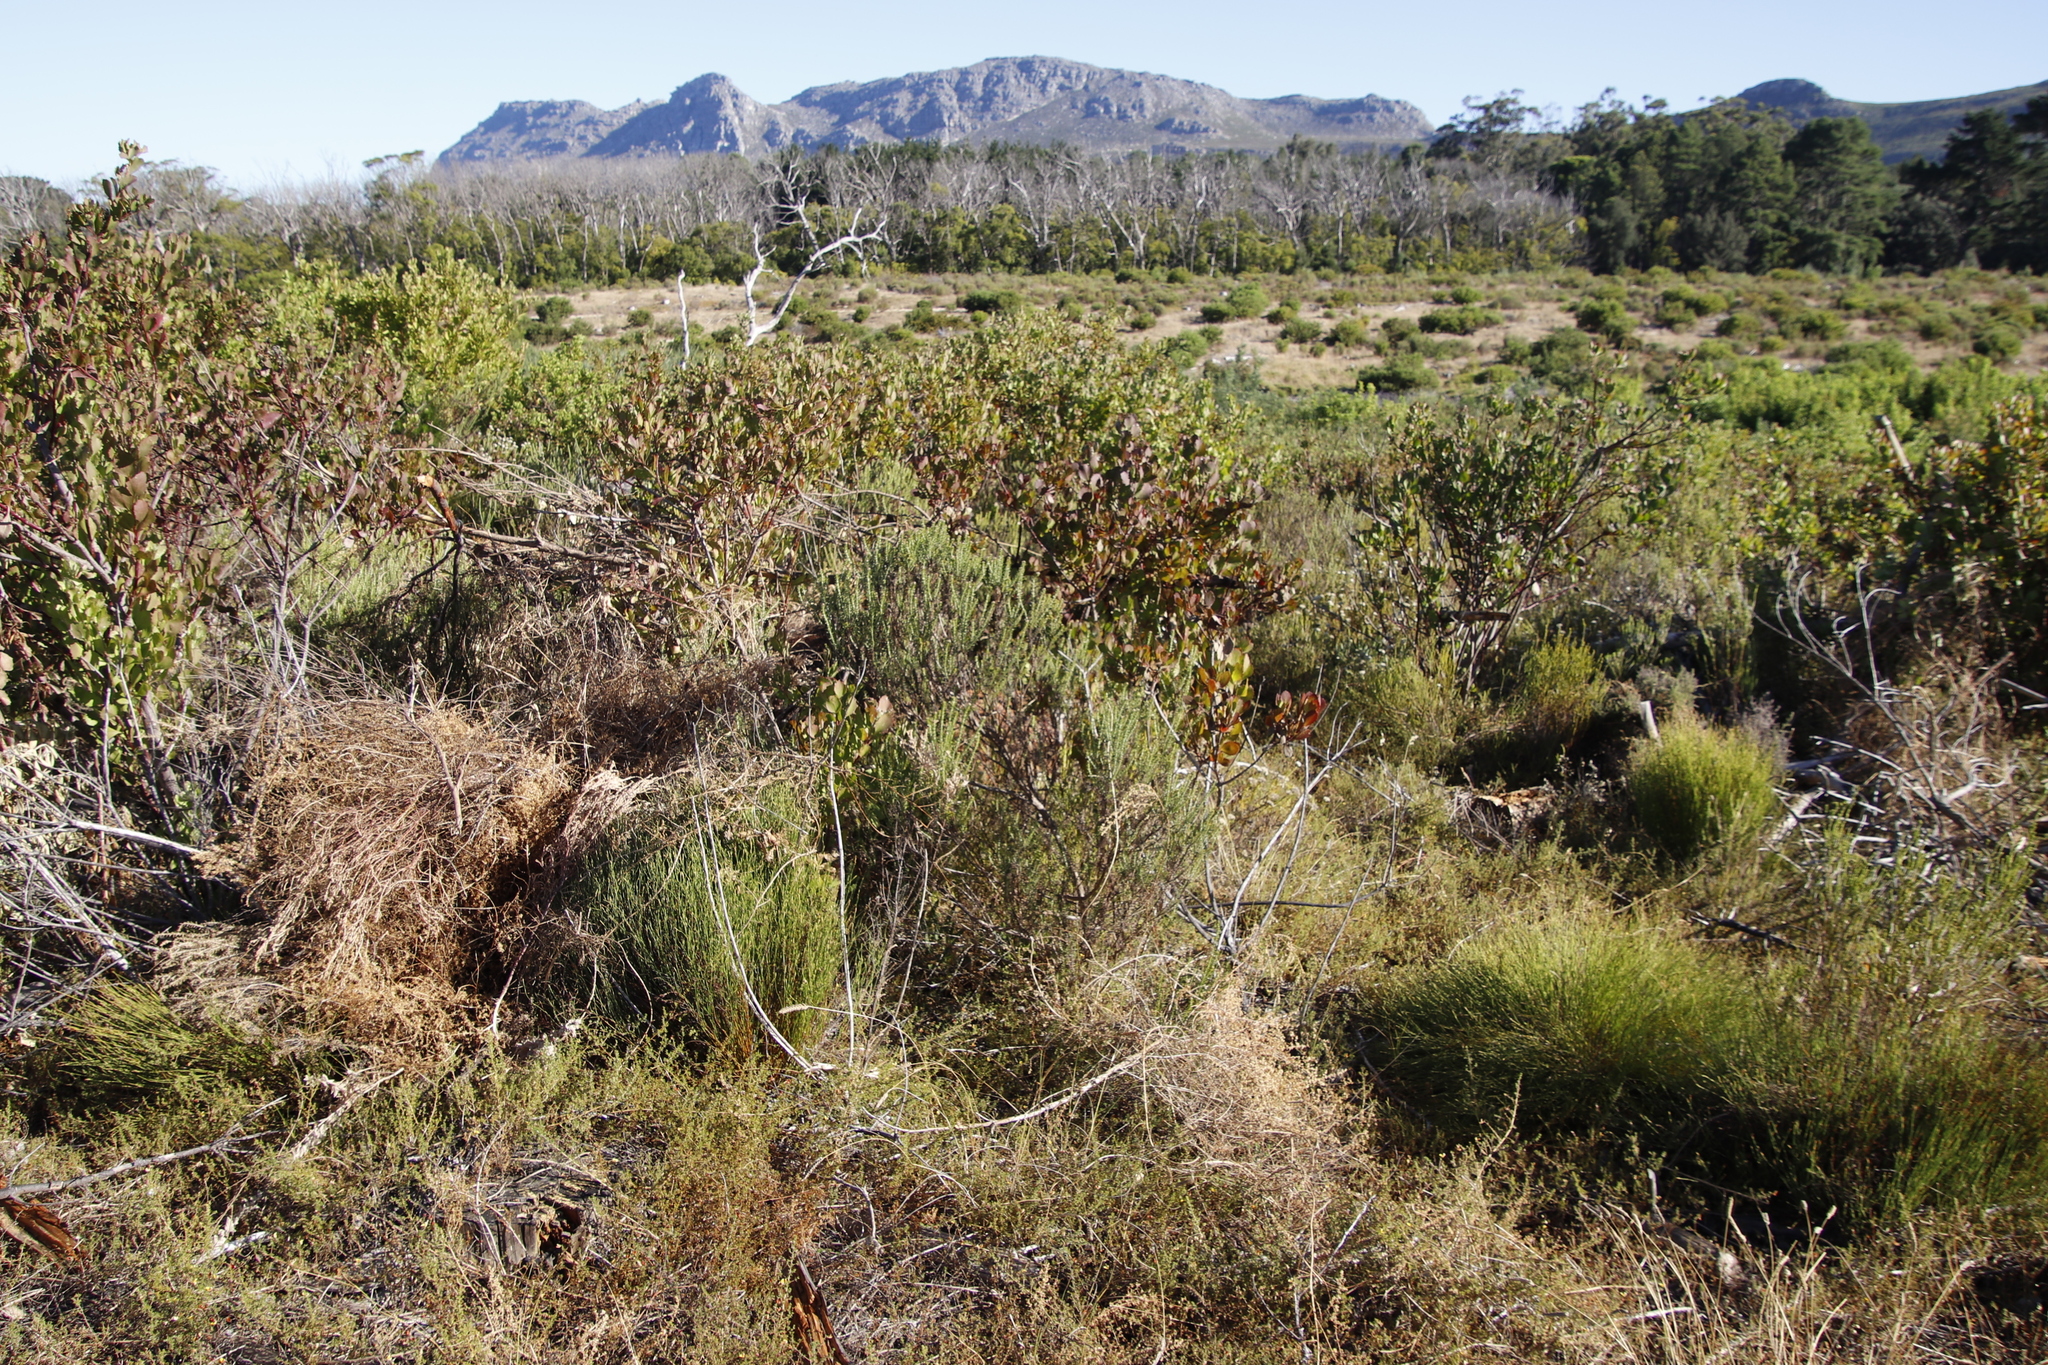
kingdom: Plantae
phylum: Tracheophyta
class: Magnoliopsida
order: Asterales
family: Asteraceae
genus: Metalasia
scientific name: Metalasia densa
